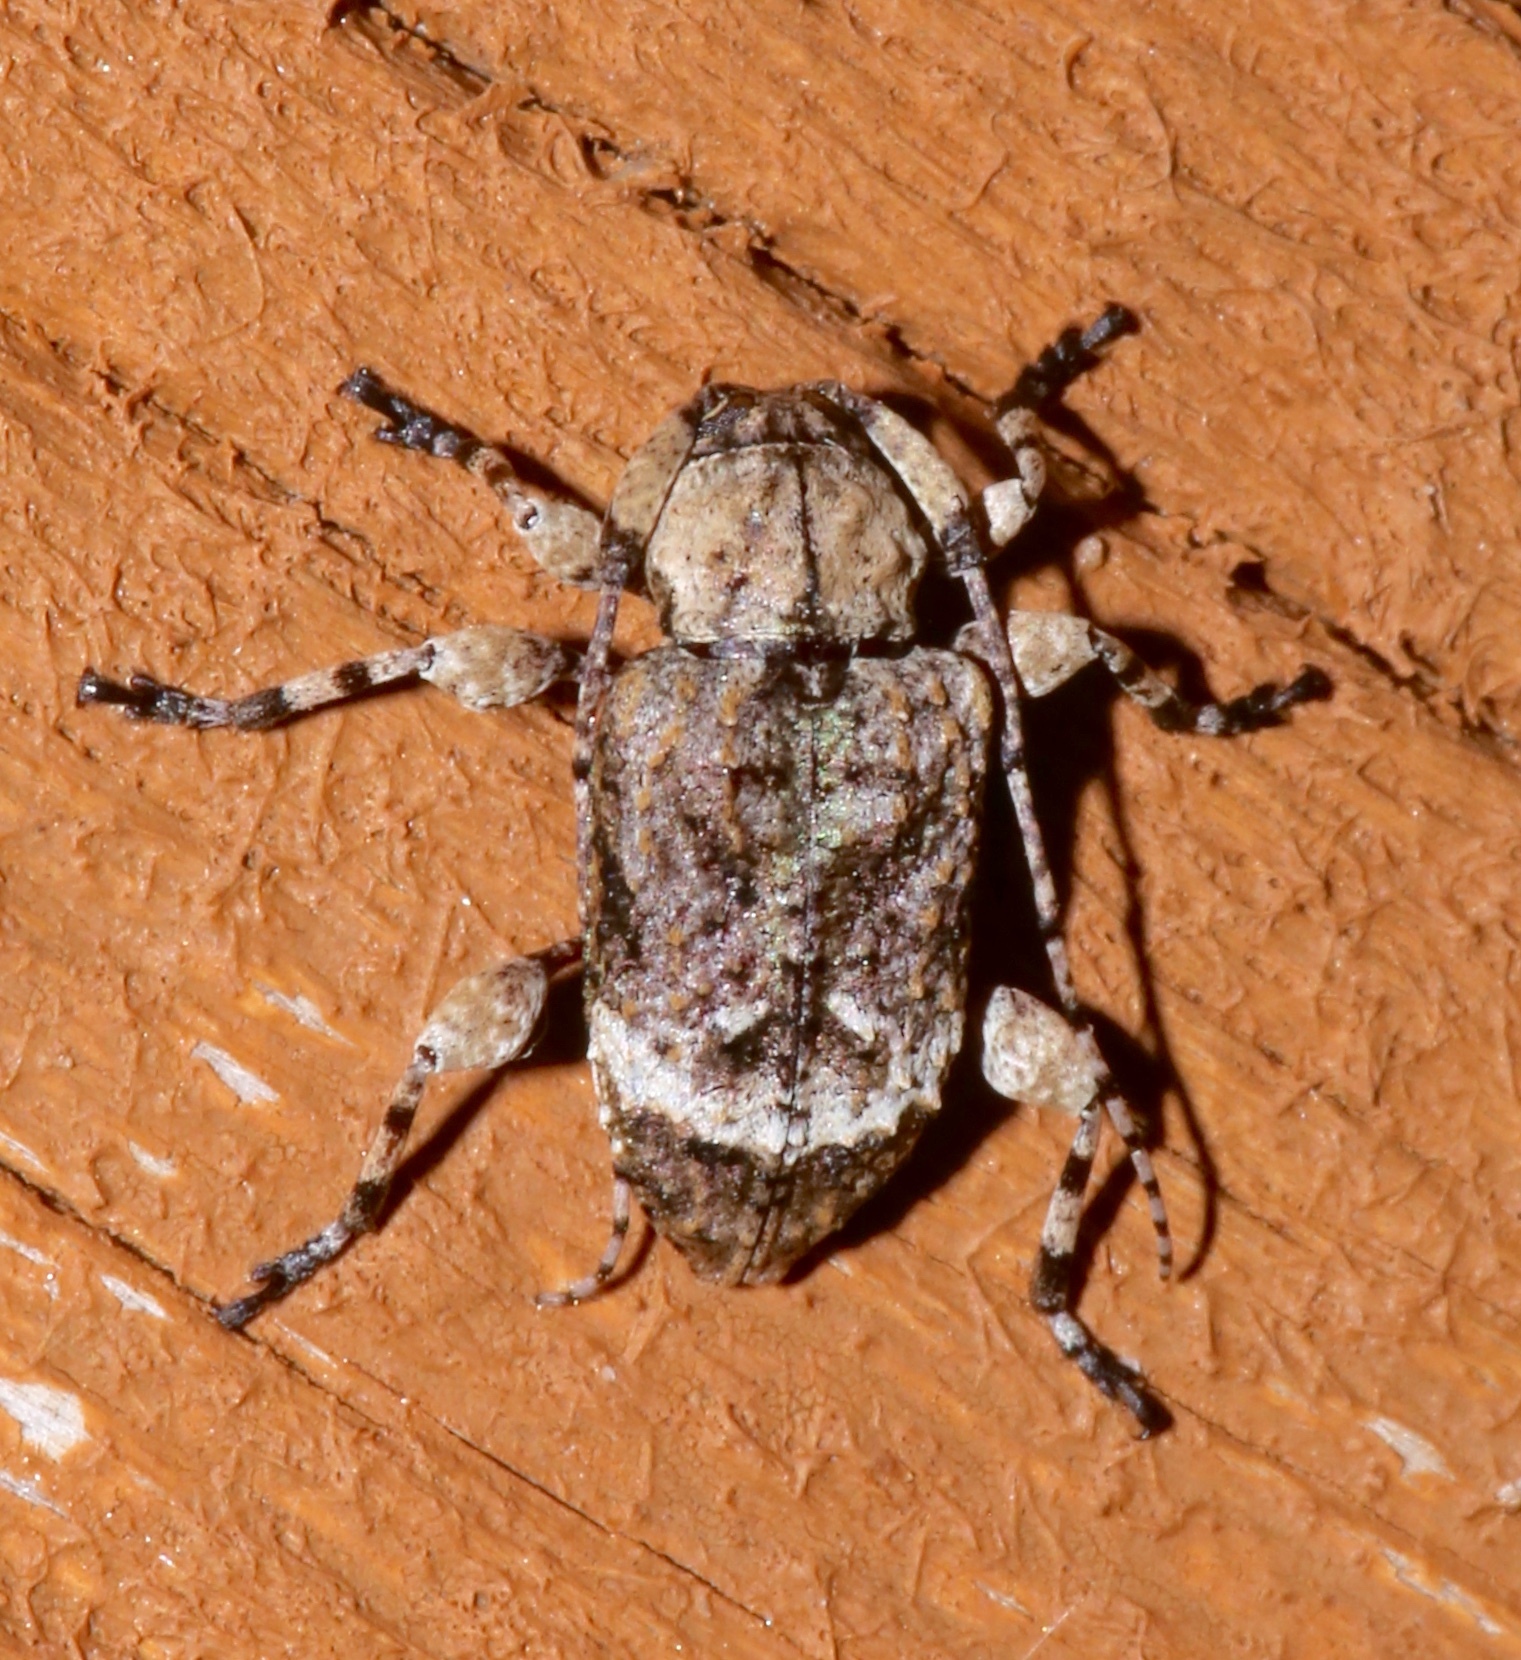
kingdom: Animalia
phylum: Arthropoda
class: Insecta
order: Coleoptera
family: Cerambycidae
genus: Leptostylus
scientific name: Leptostylus transversus
